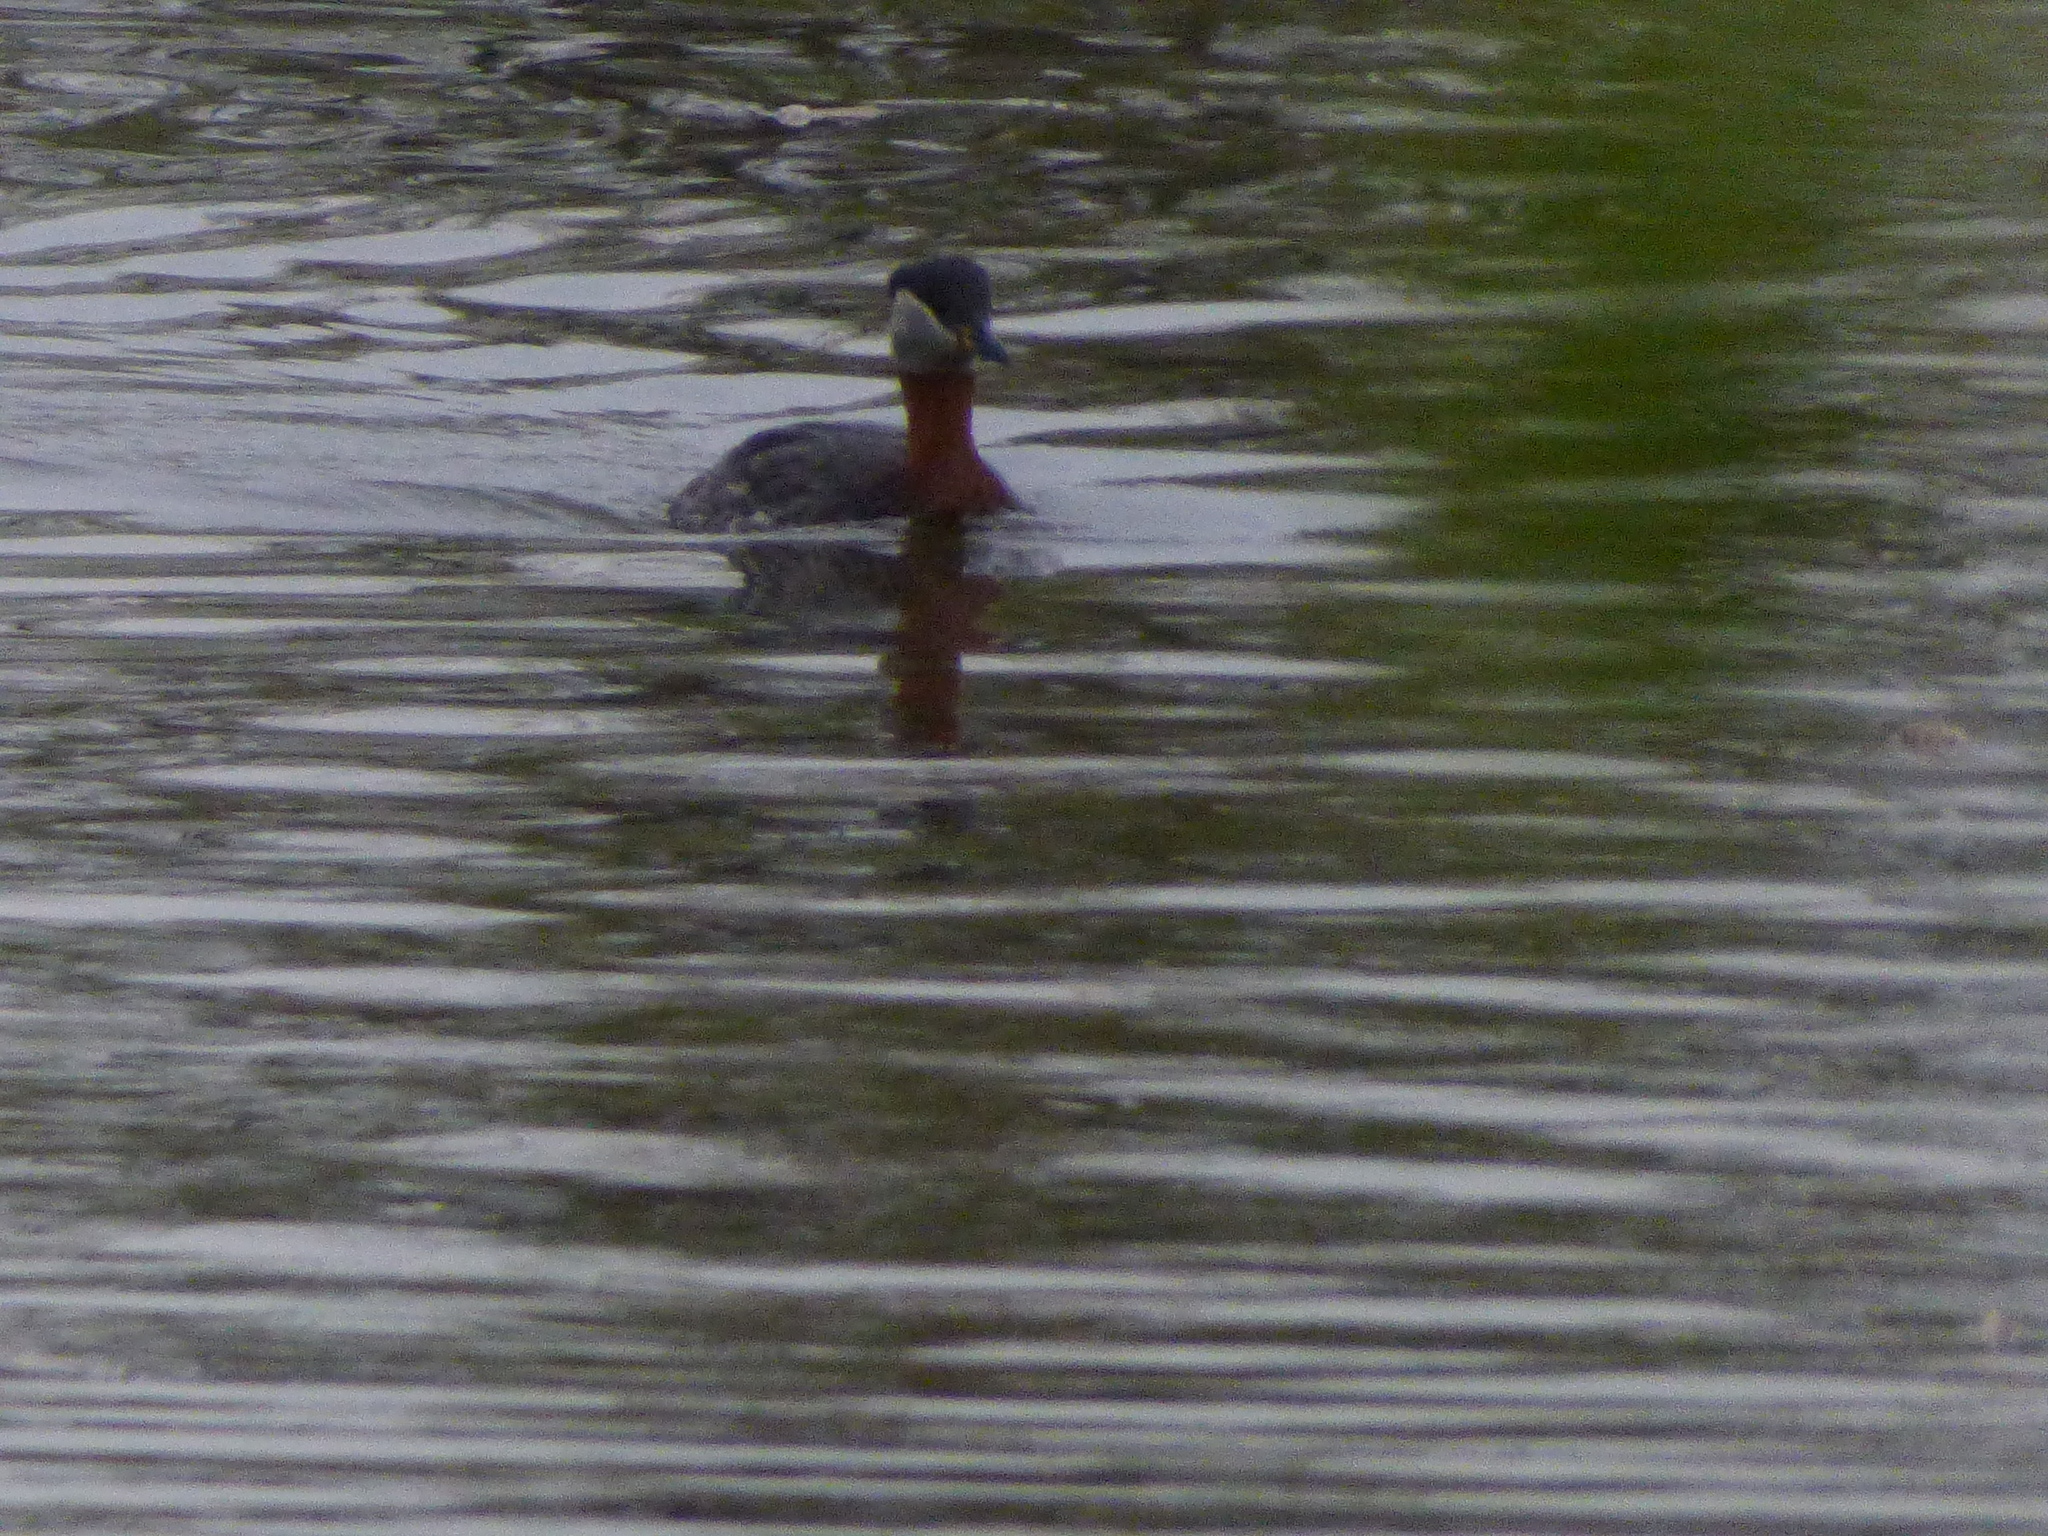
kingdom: Animalia
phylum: Chordata
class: Aves
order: Podicipediformes
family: Podicipedidae
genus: Podiceps
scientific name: Podiceps grisegena
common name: Red-necked grebe
